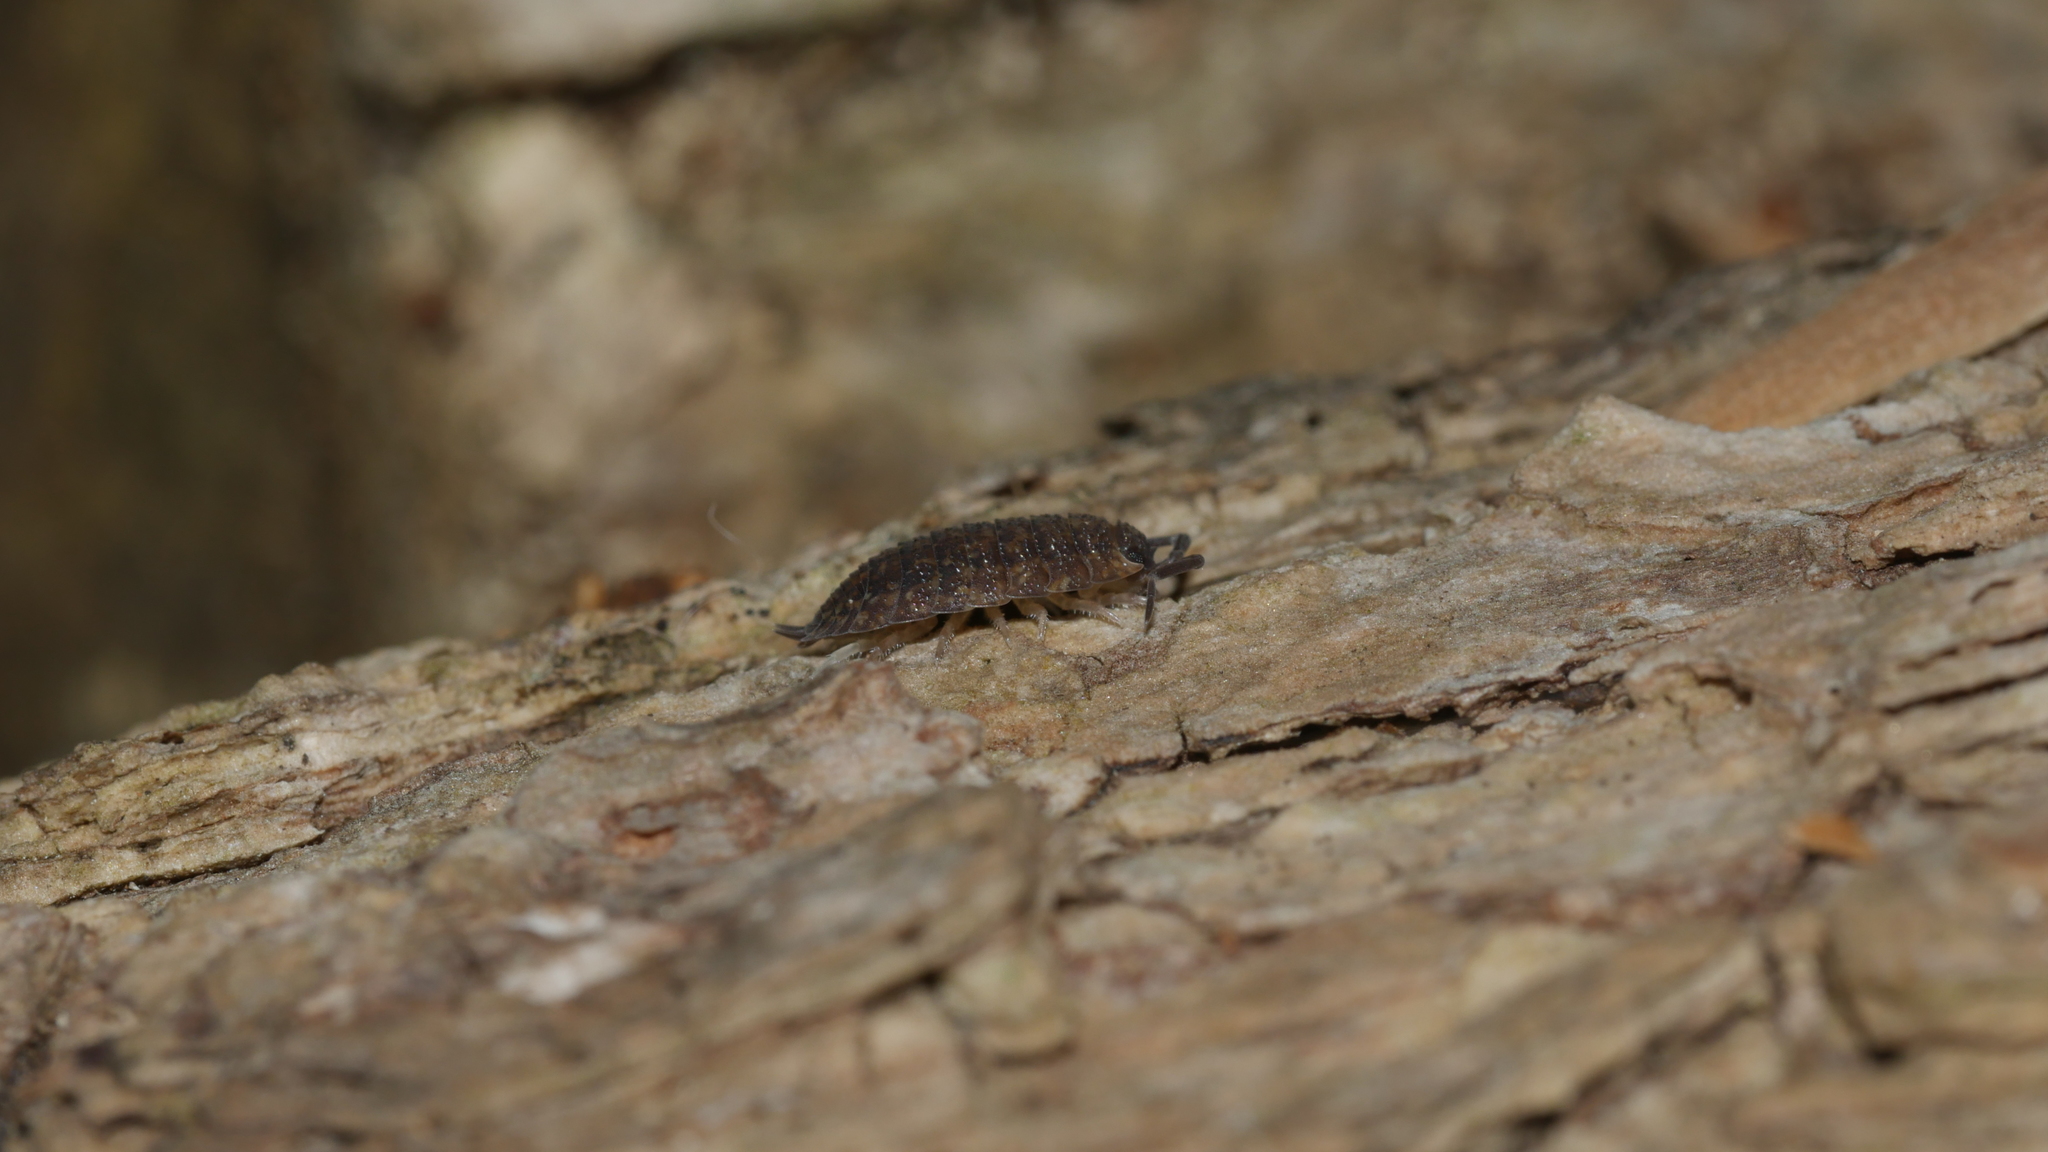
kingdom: Animalia
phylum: Arthropoda
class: Malacostraca
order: Isopoda
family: Porcellionidae
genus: Porcellio
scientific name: Porcellio scaber
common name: Common rough woodlouse
